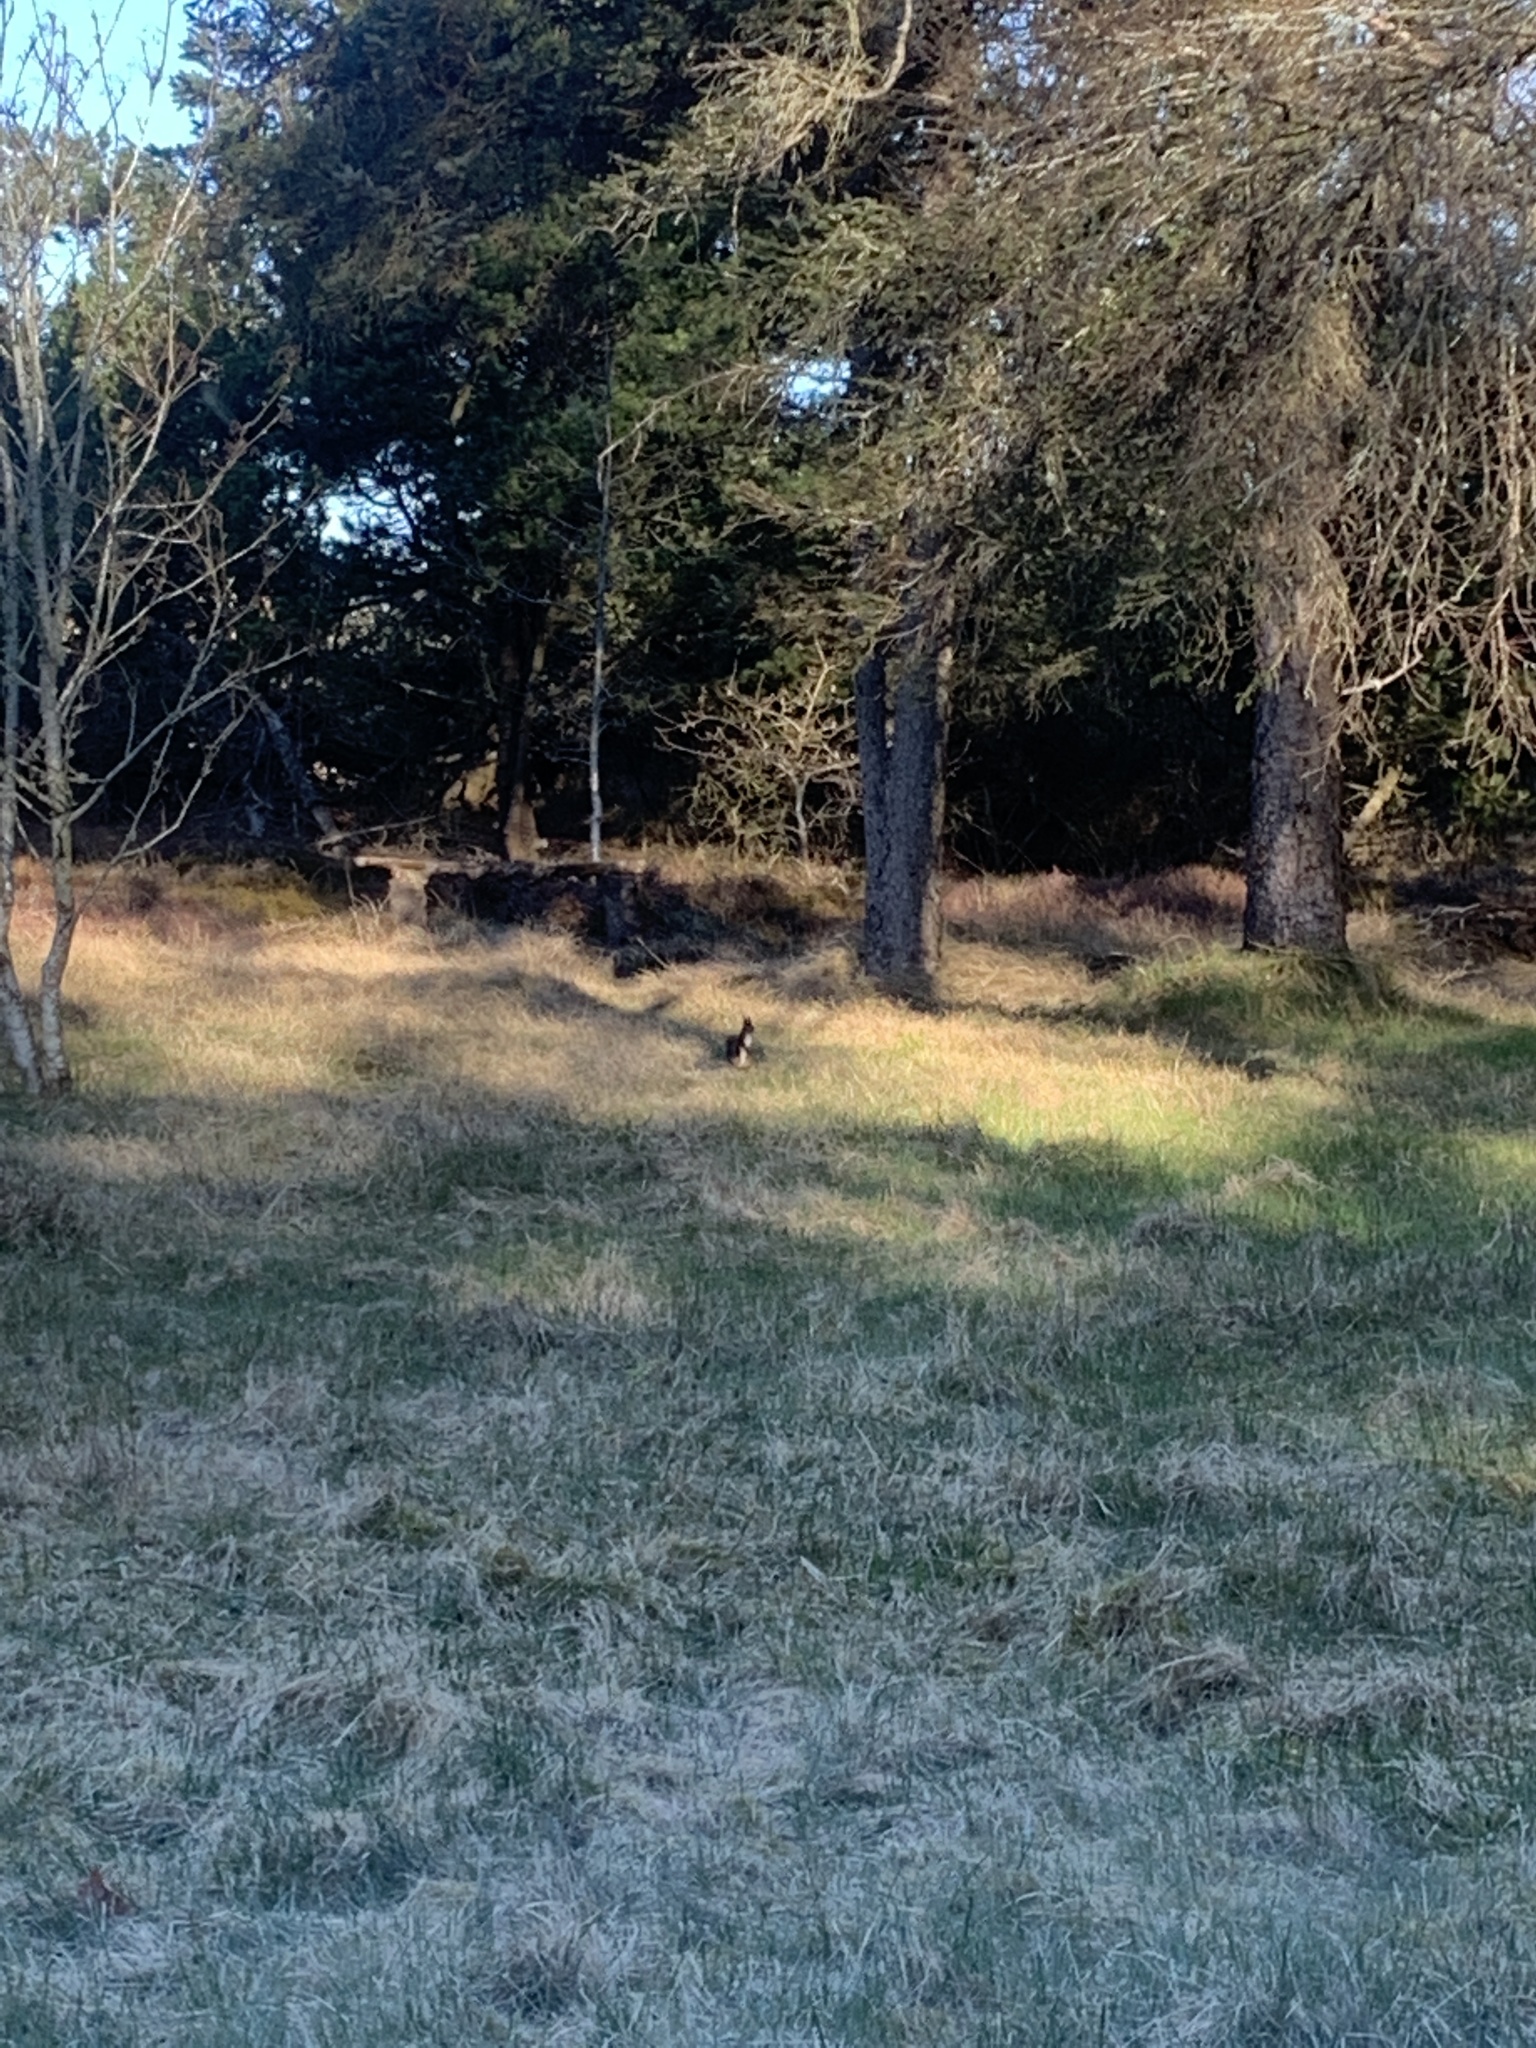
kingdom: Animalia
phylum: Chordata
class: Mammalia
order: Rodentia
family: Sciuridae
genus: Sciurus
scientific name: Sciurus vulgaris
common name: Eurasian red squirrel
